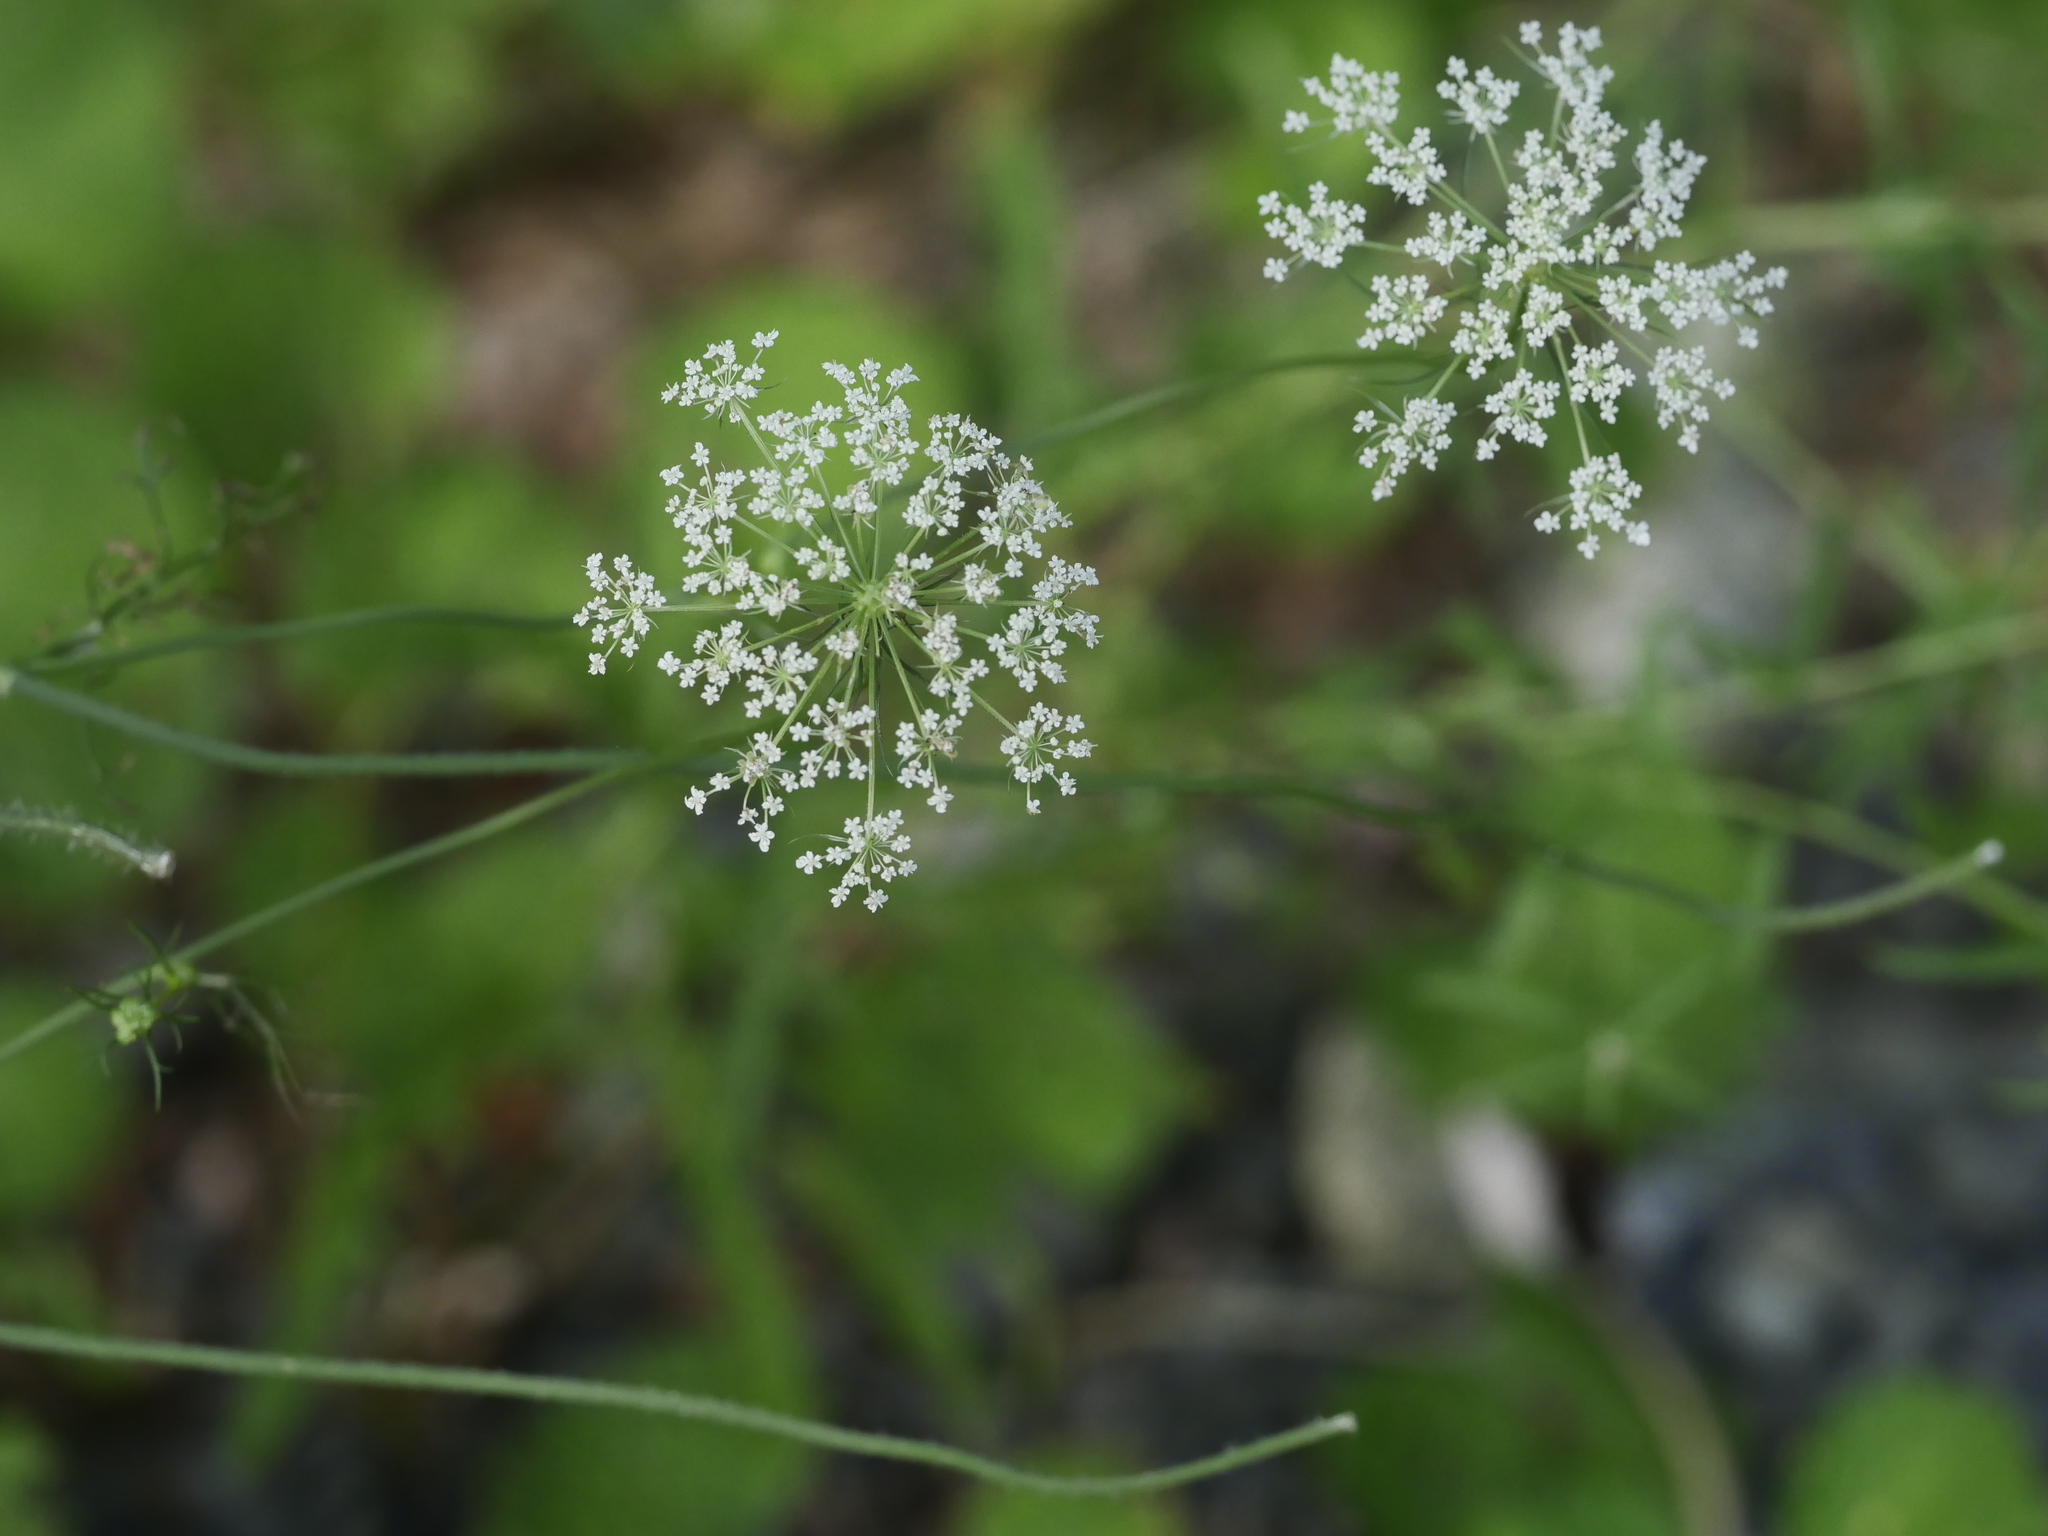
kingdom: Plantae
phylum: Tracheophyta
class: Magnoliopsida
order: Apiales
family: Apiaceae
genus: Daucus
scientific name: Daucus carota
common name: Wild carrot
